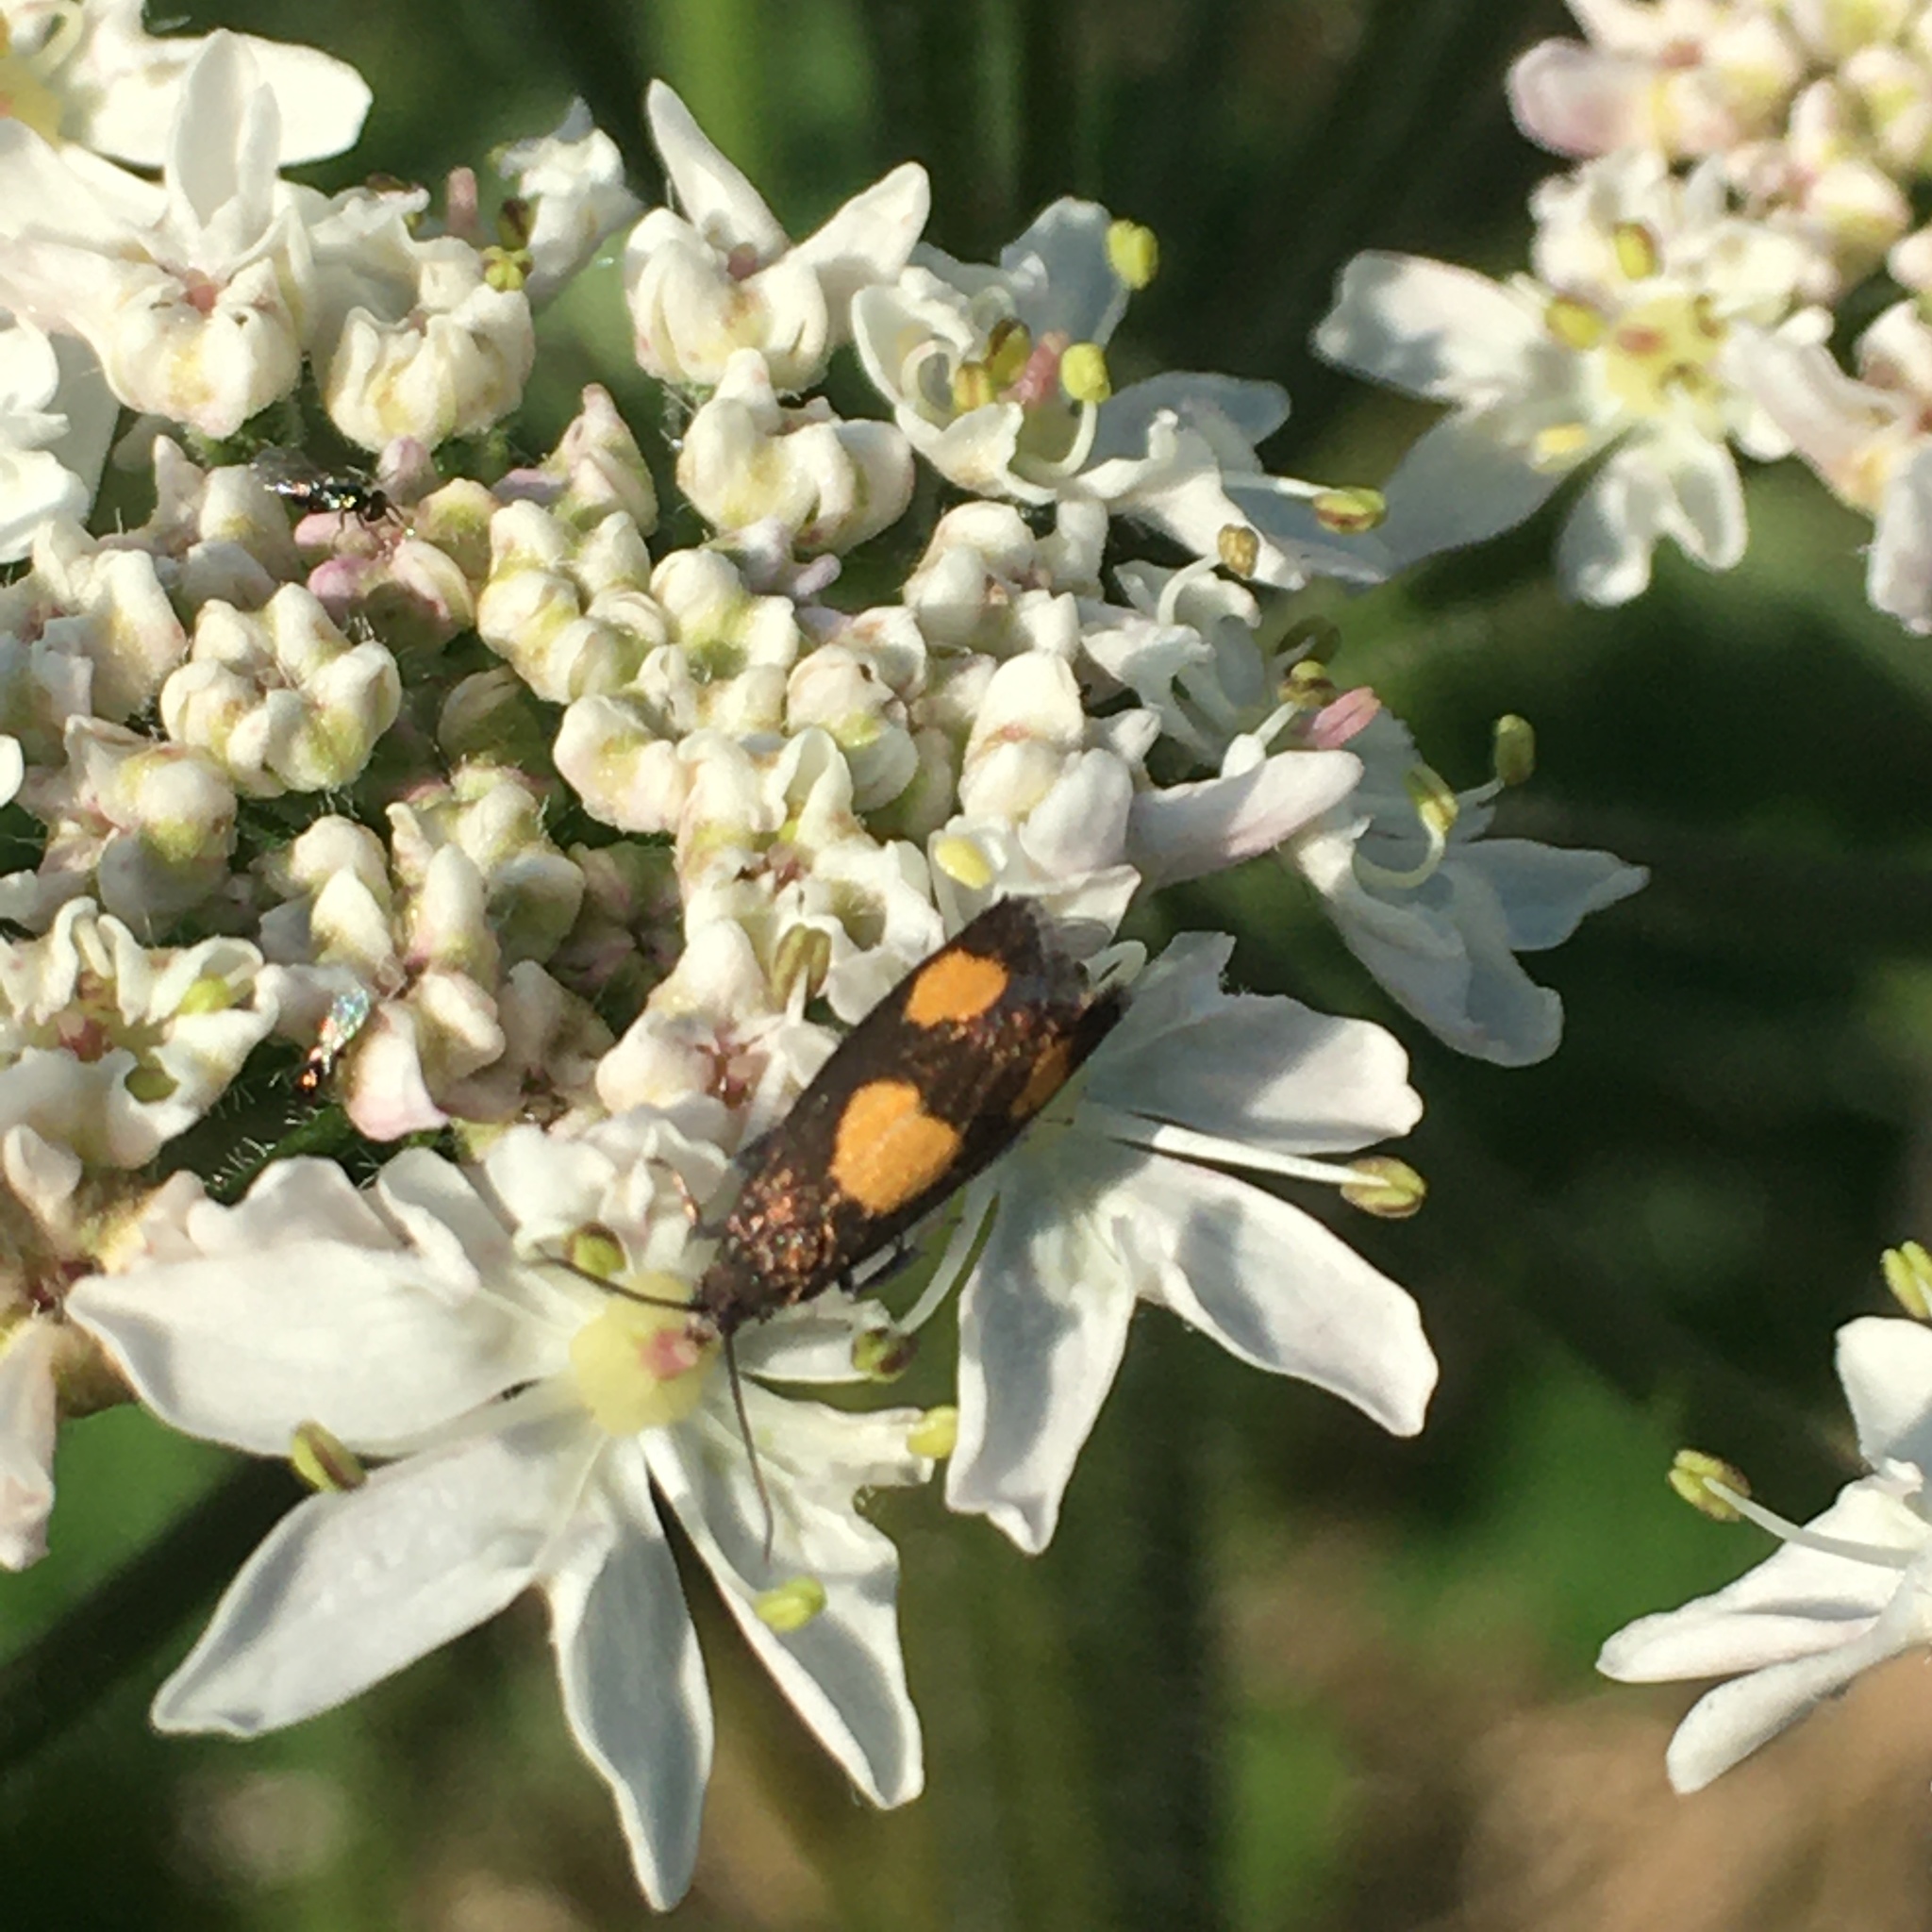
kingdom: Animalia
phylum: Arthropoda
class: Insecta
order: Lepidoptera
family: Tortricidae
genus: Pammene
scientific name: Pammene aurana
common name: Orange-spot piercer
